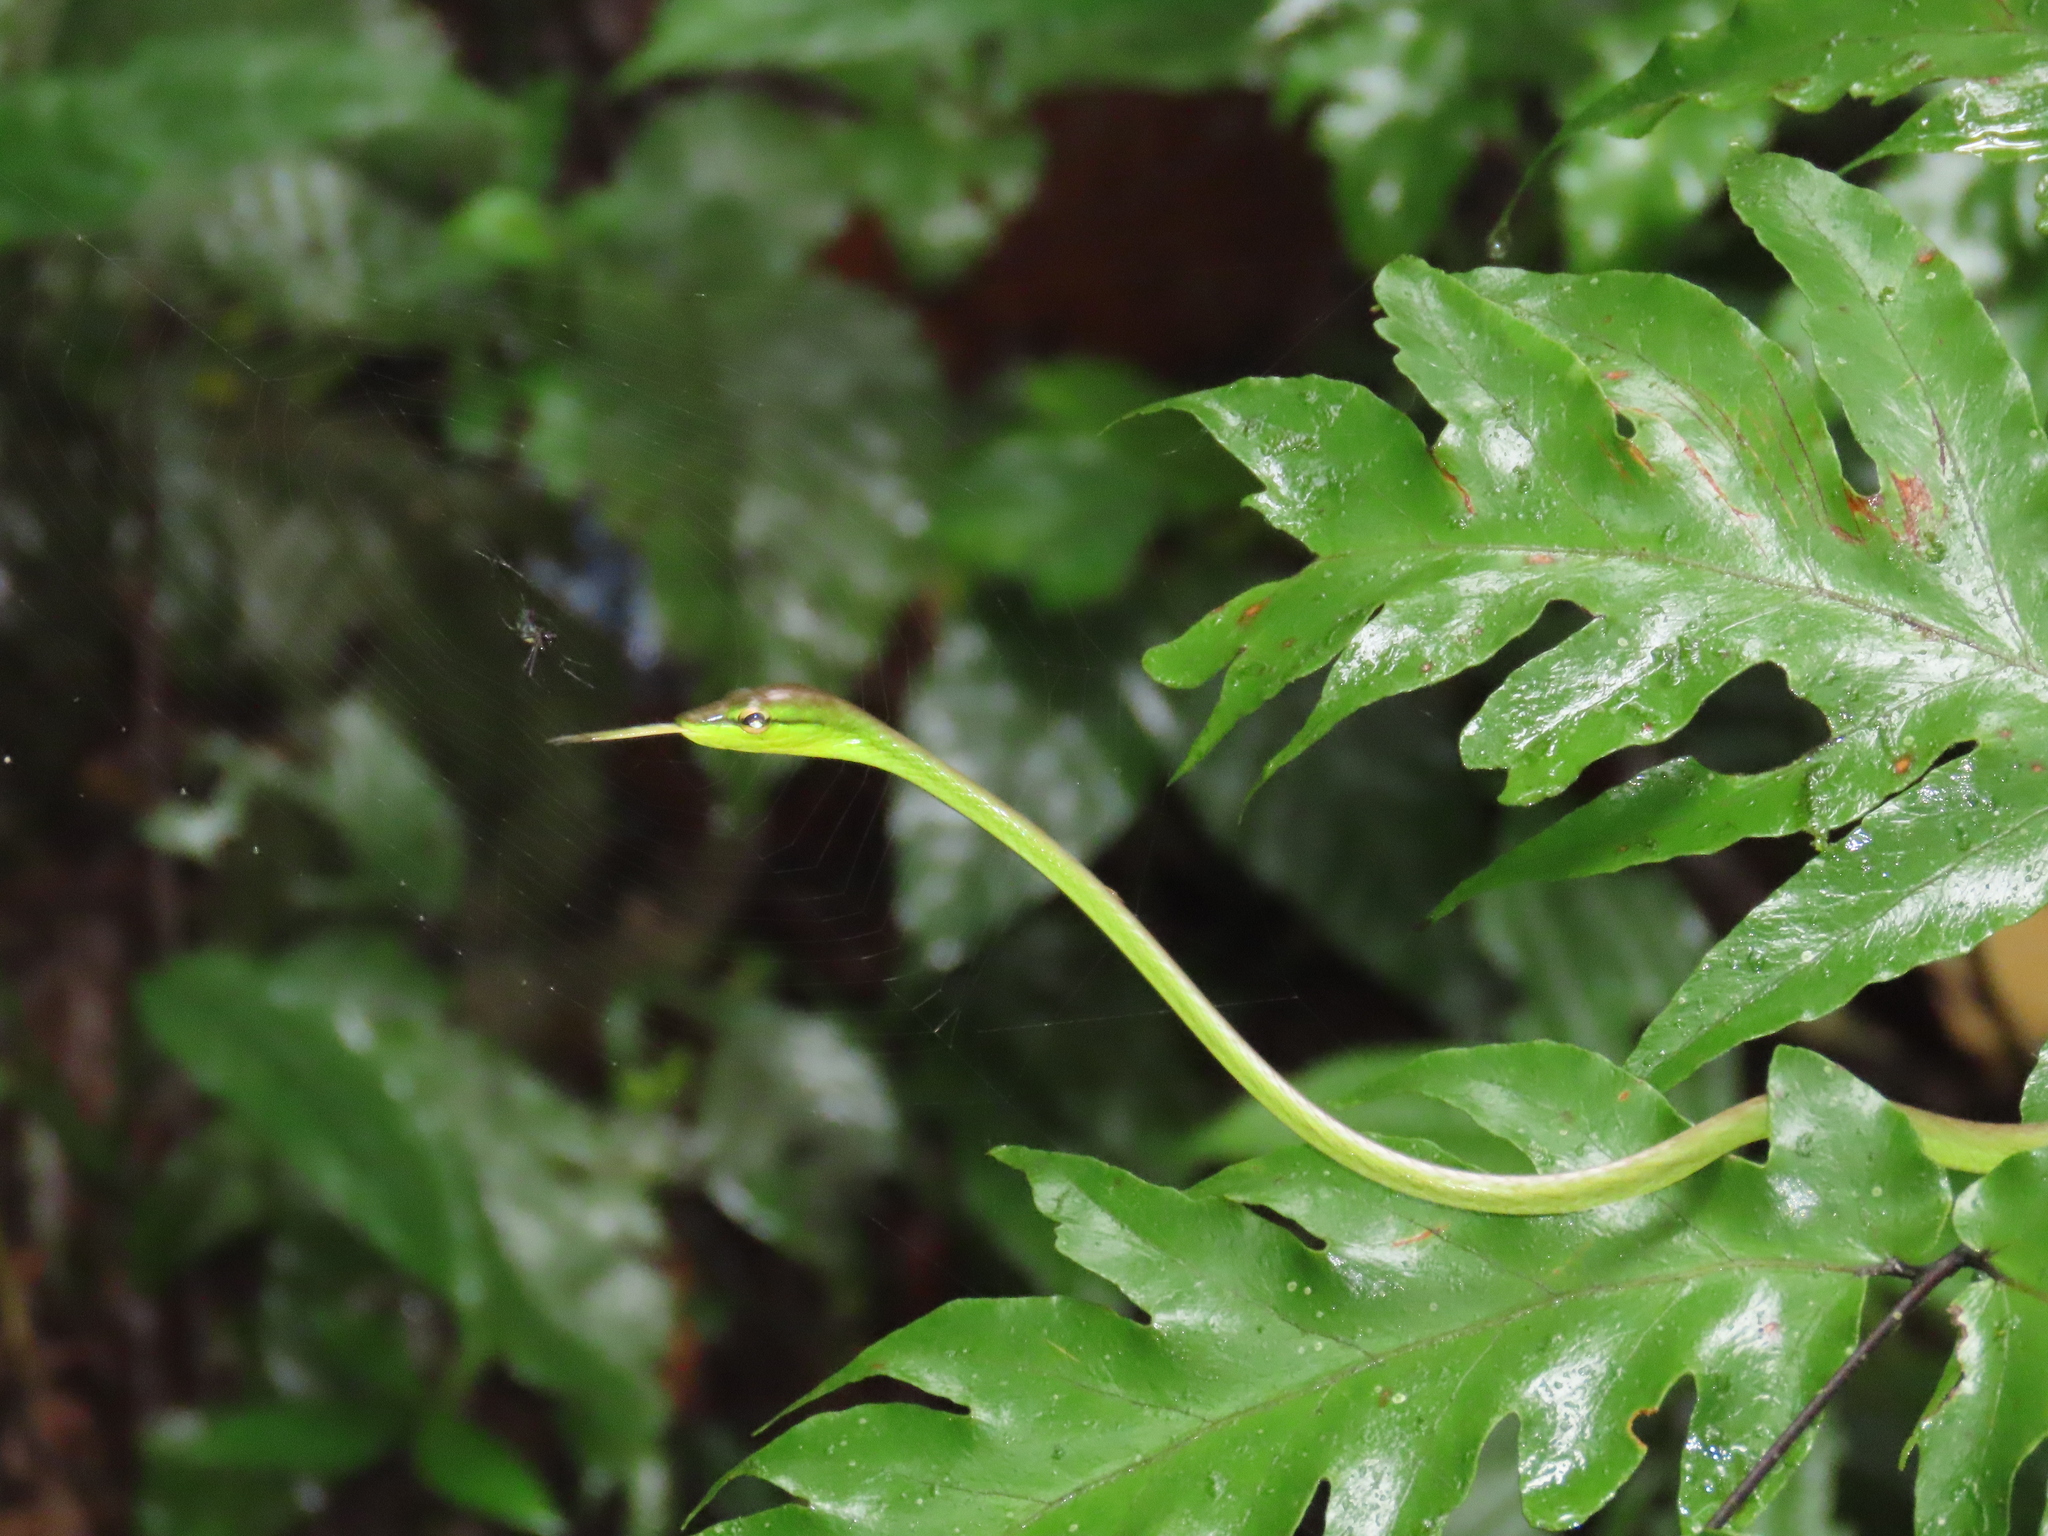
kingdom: Animalia
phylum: Chordata
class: Squamata
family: Colubridae
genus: Oxybelis
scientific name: Oxybelis brevirostris
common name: Cope's vine snake
